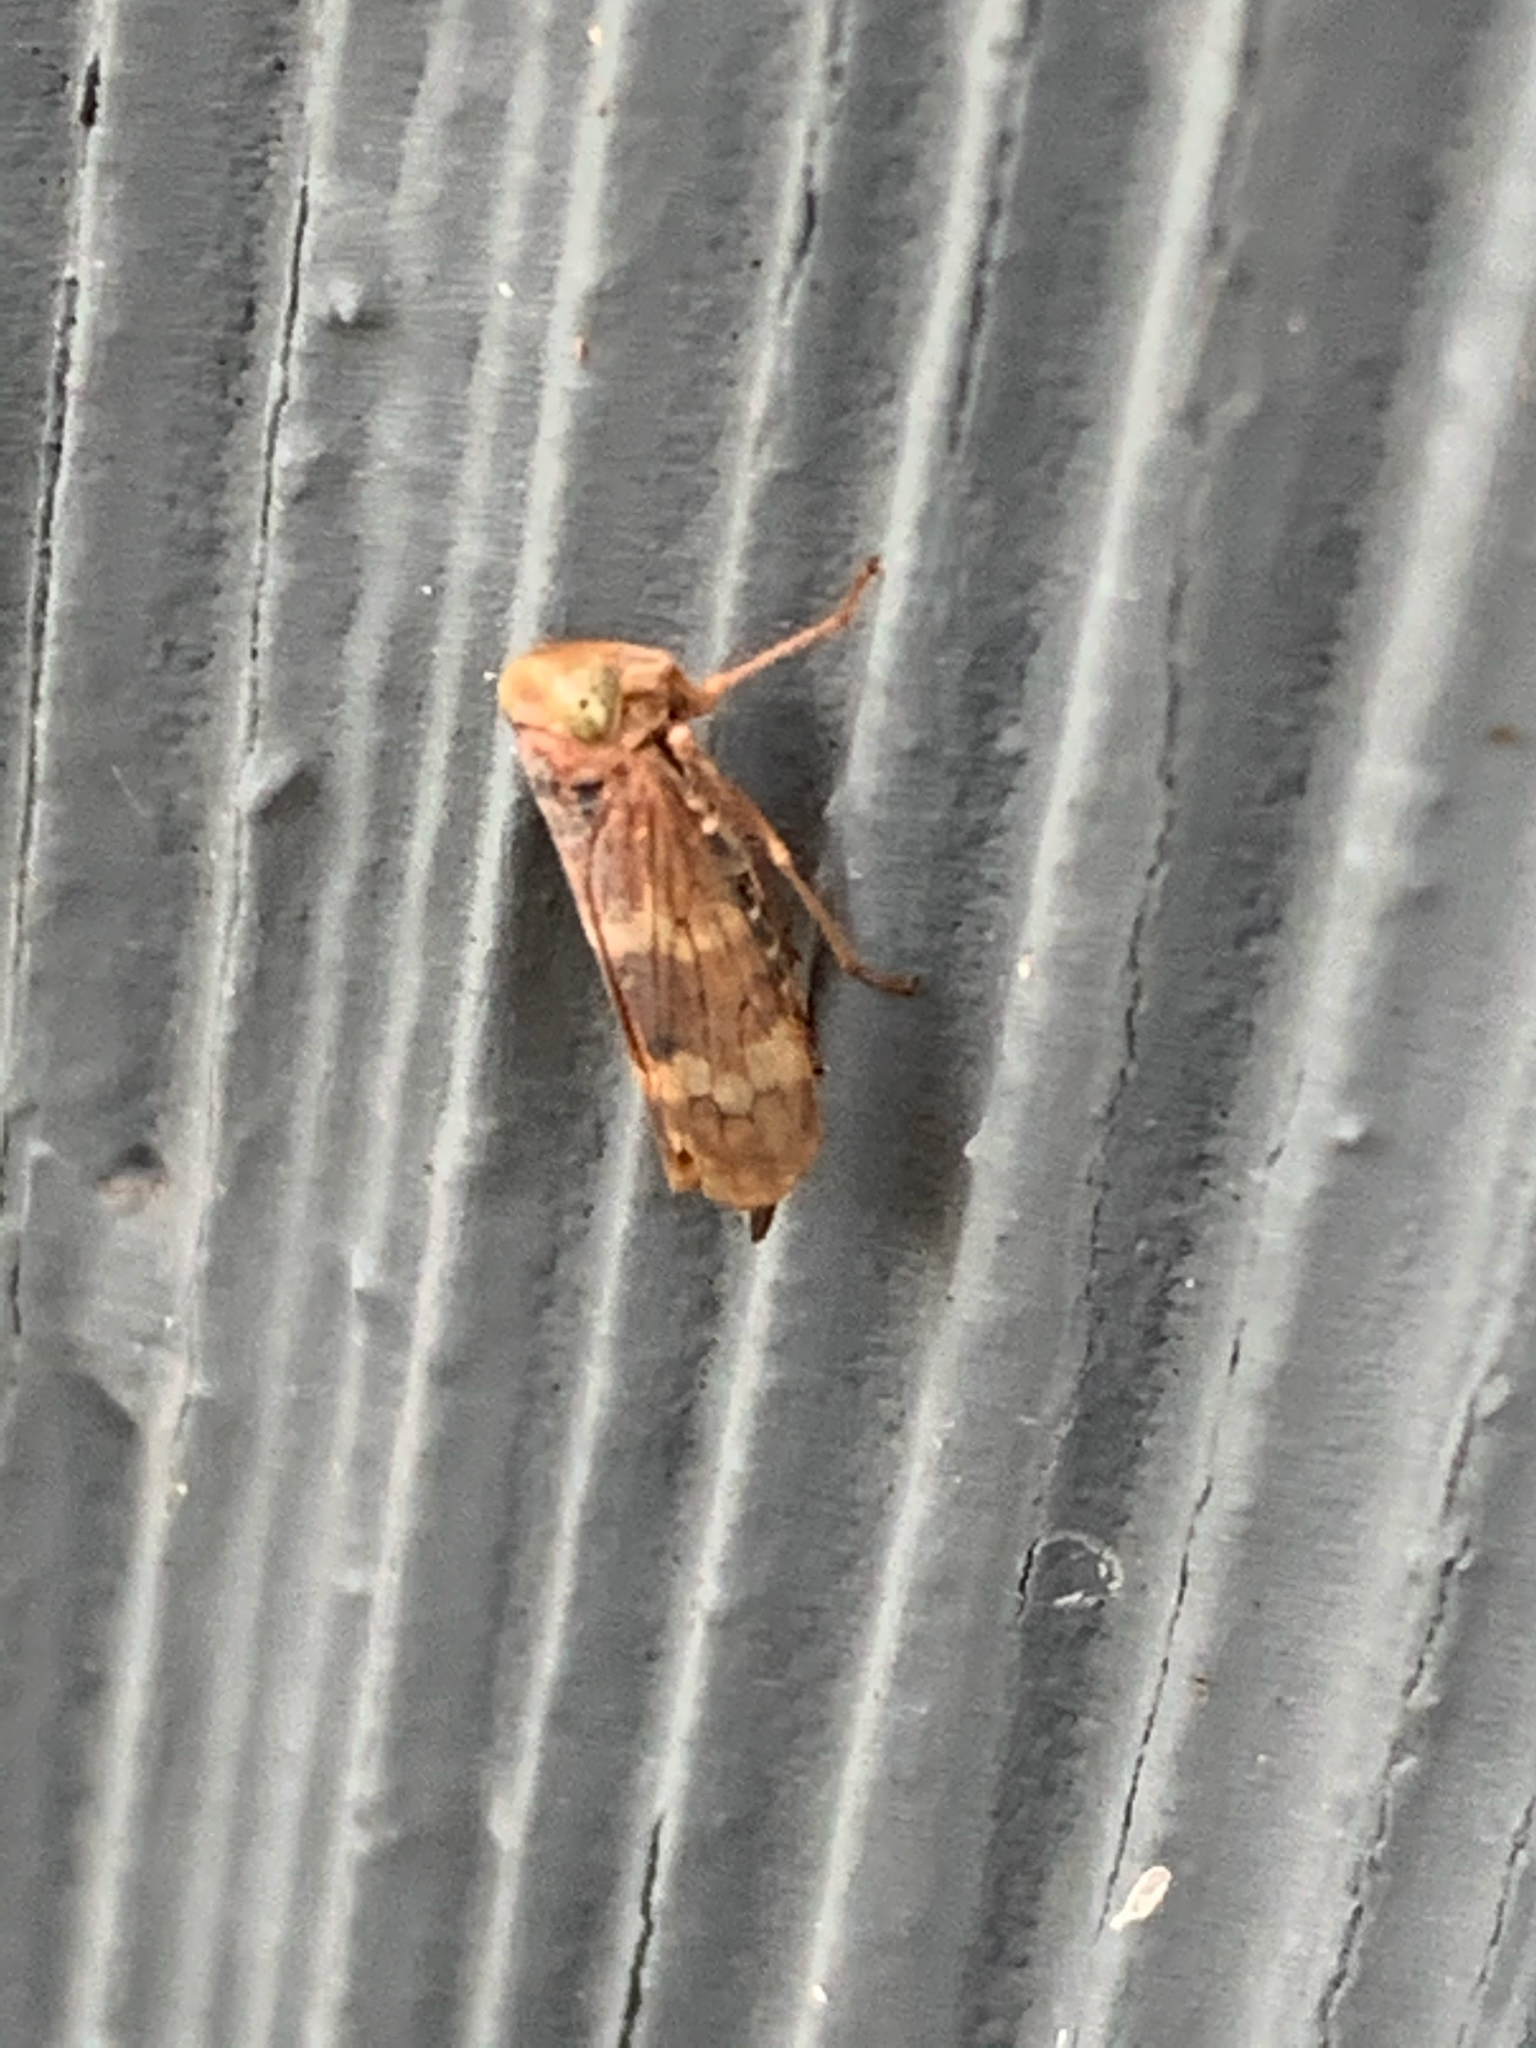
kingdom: Animalia
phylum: Arthropoda
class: Insecta
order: Hemiptera
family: Cicadellidae
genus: Jikradia
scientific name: Jikradia olitoria
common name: Coppery leafhopper
